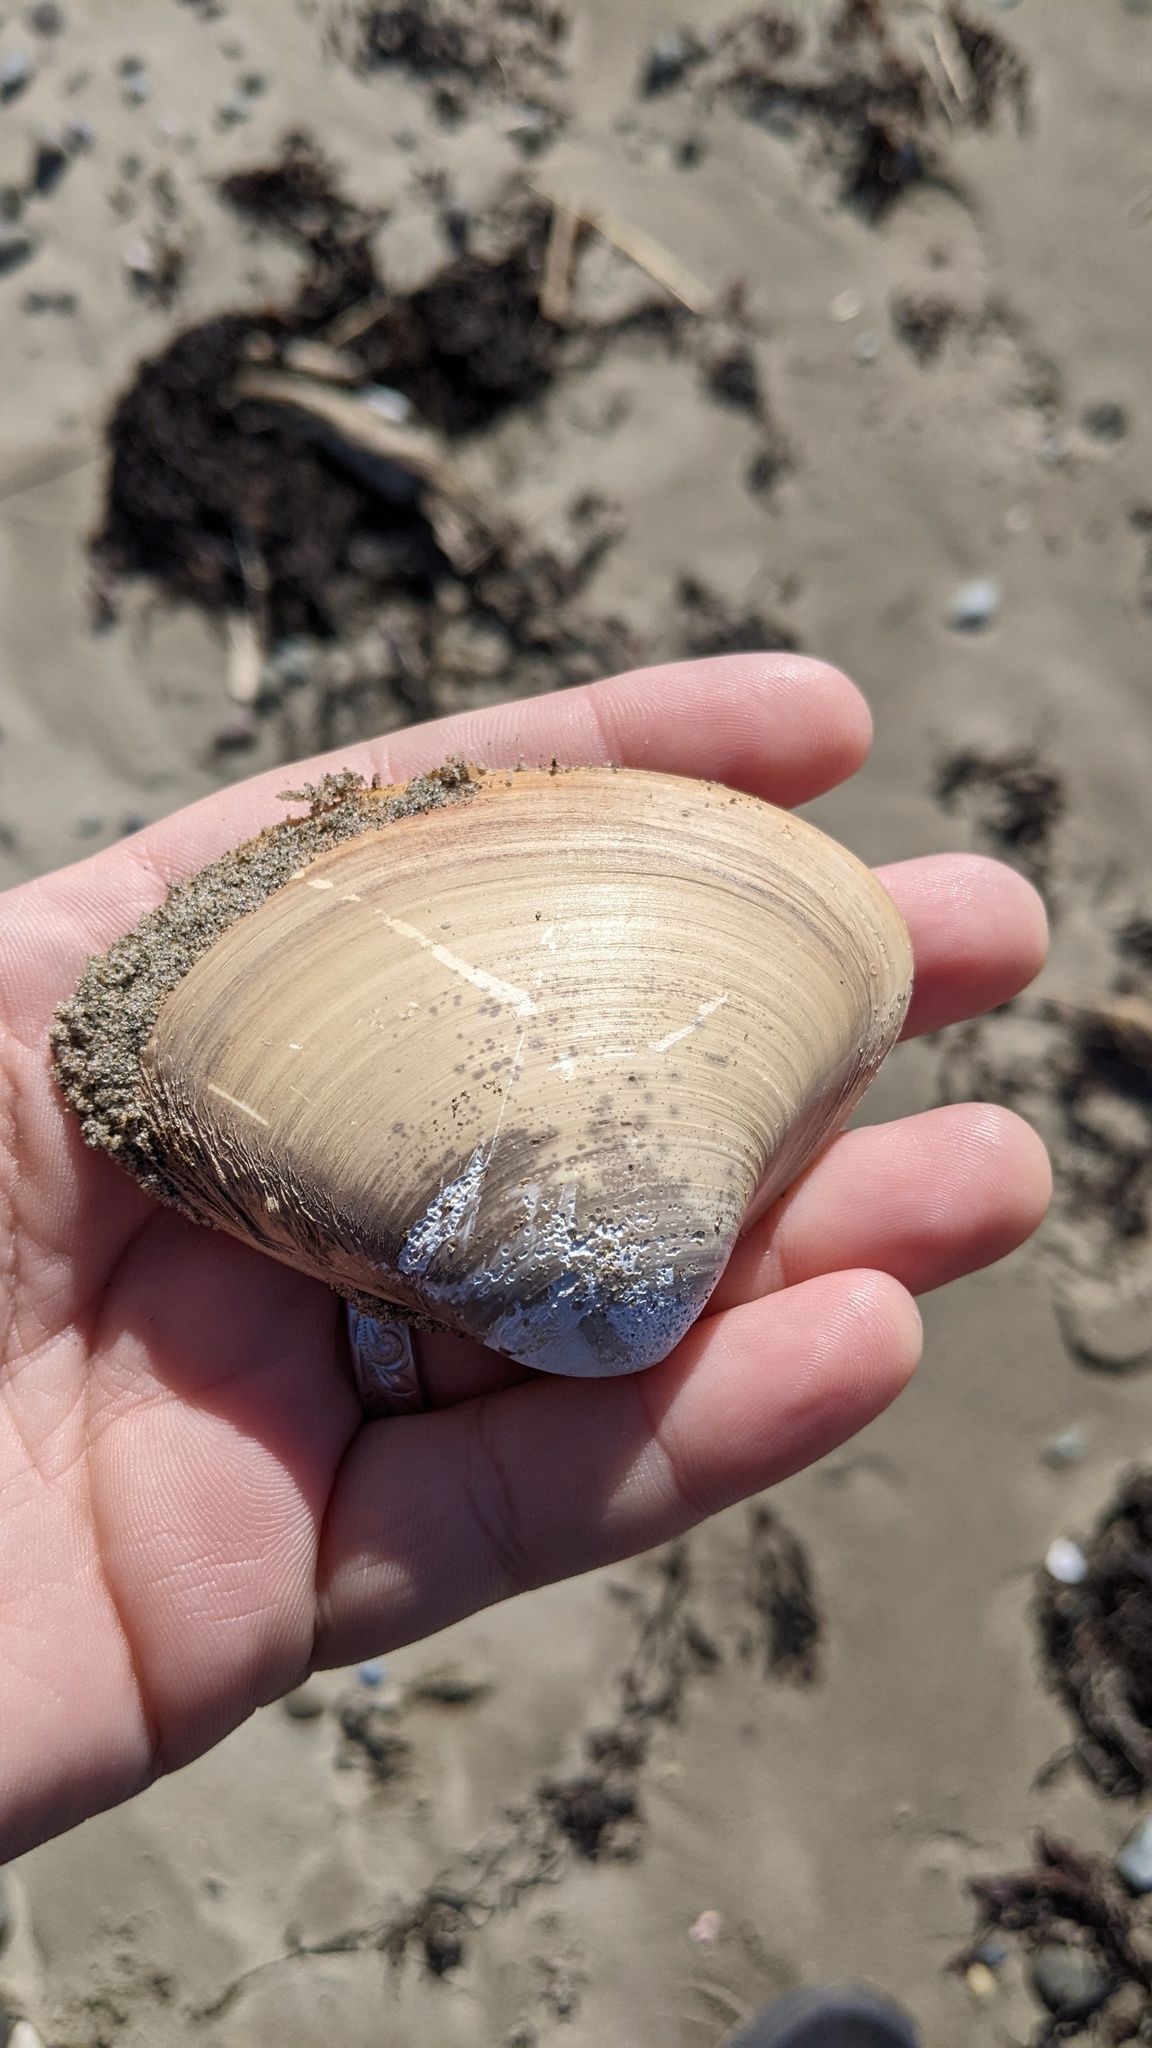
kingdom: Animalia
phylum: Mollusca
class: Bivalvia
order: Venerida
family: Mactridae
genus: Spisula
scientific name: Spisula solidissima
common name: Atlantic surf clam
